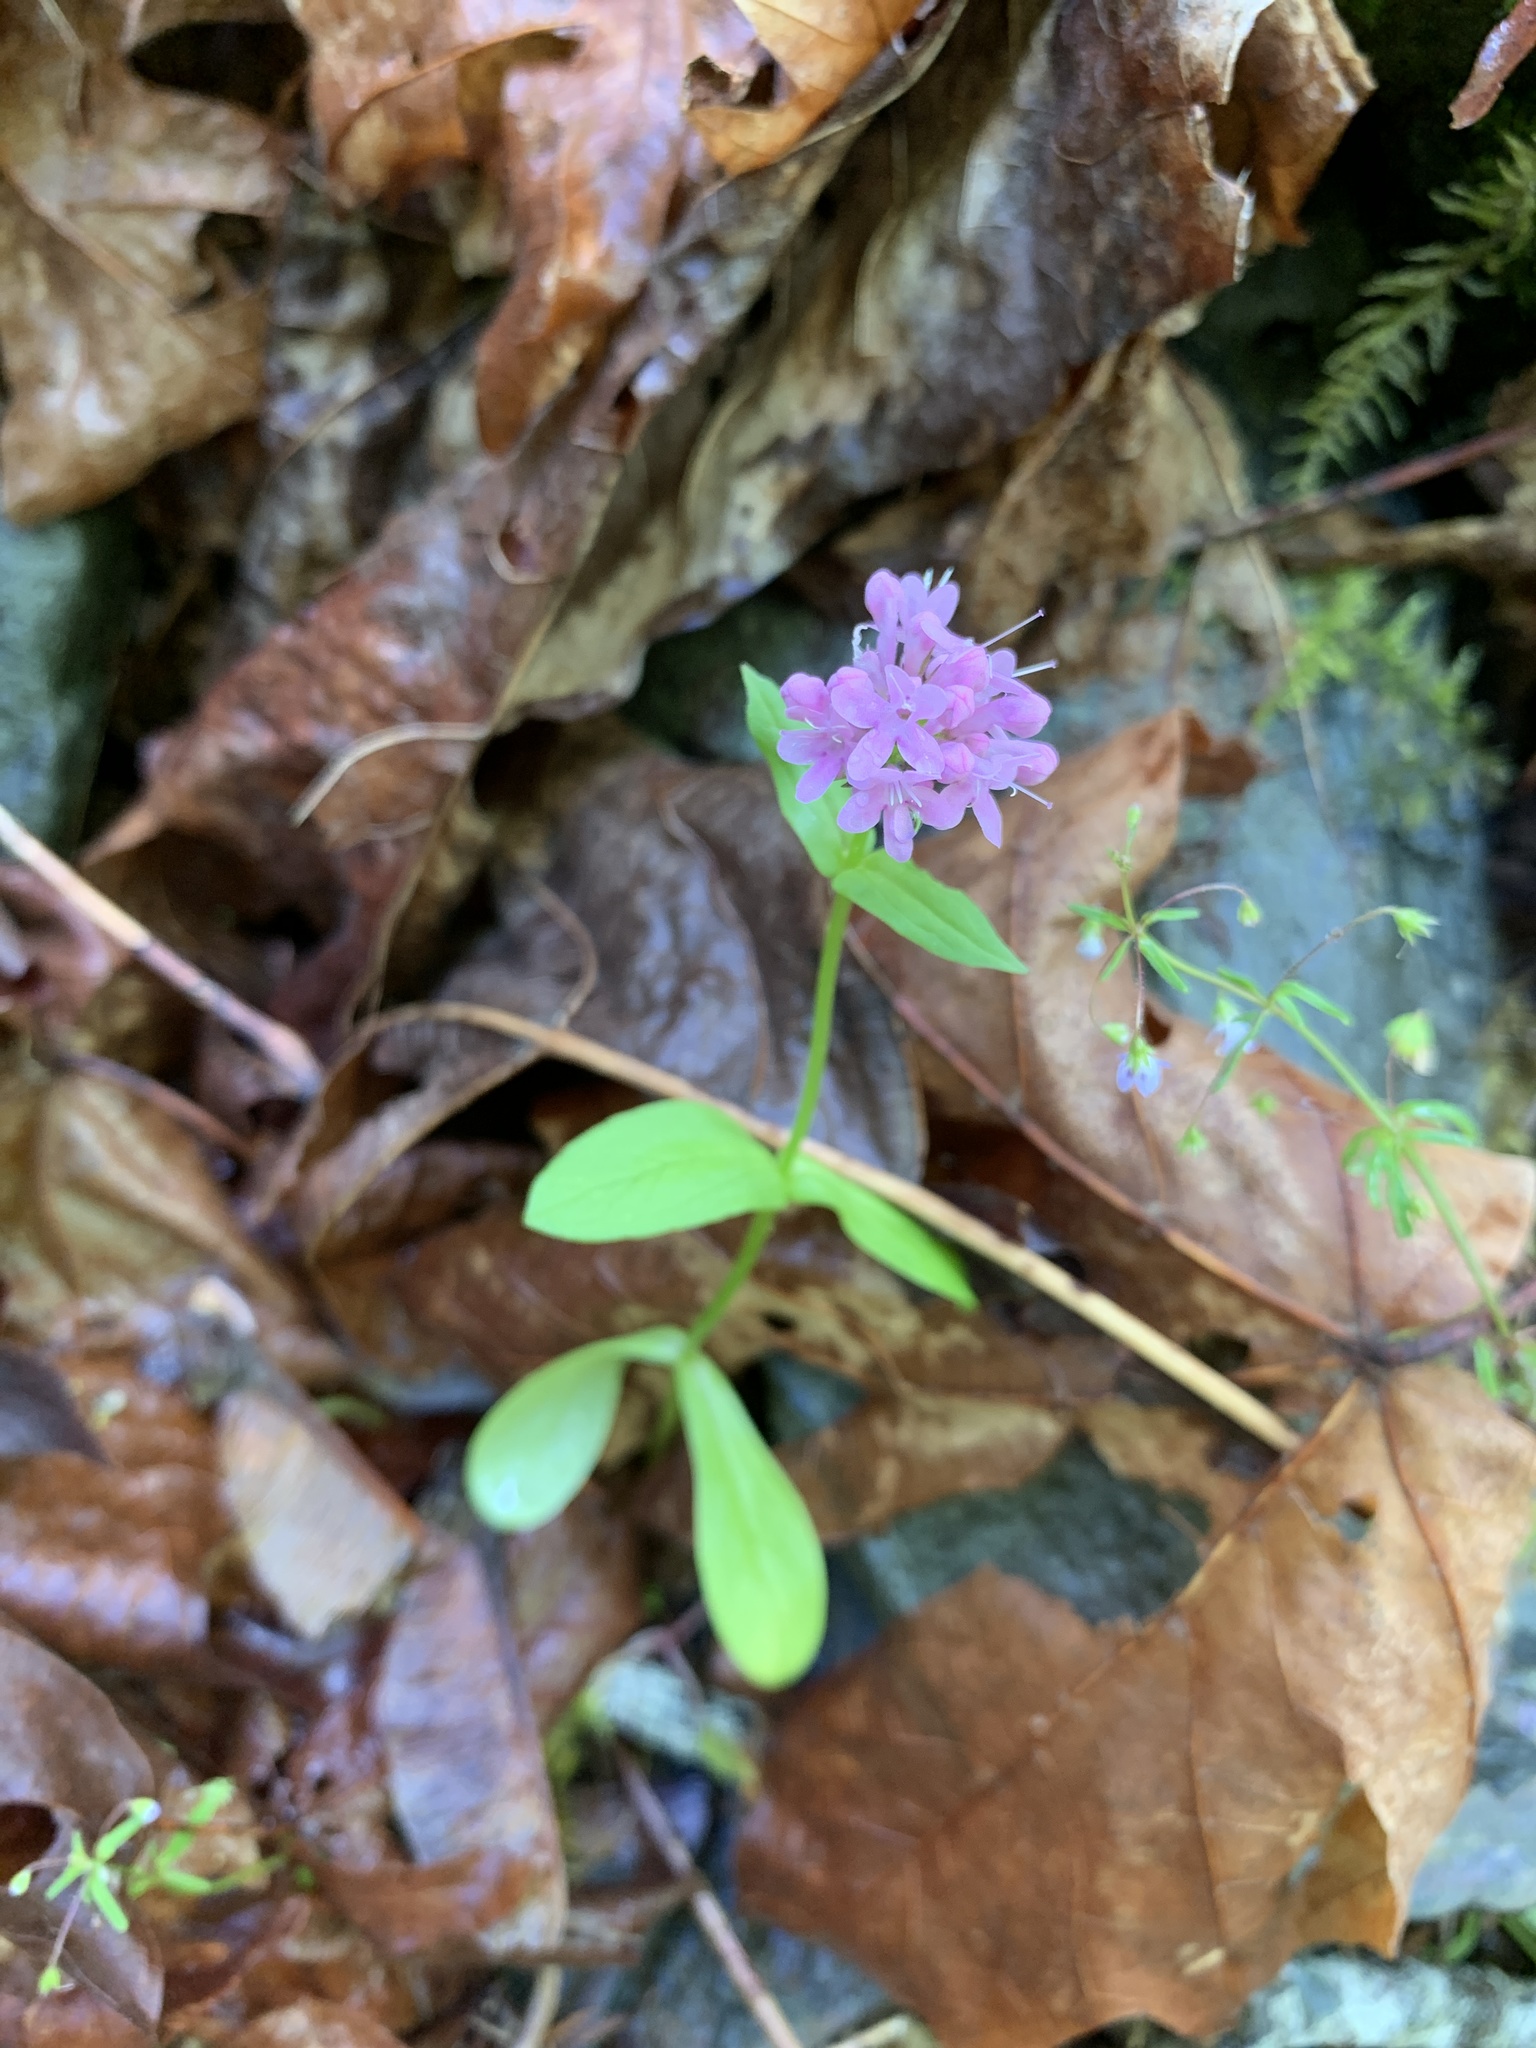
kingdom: Plantae
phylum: Tracheophyta
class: Magnoliopsida
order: Dipsacales
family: Caprifoliaceae
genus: Plectritis
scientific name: Plectritis congesta
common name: Pink plectritis
